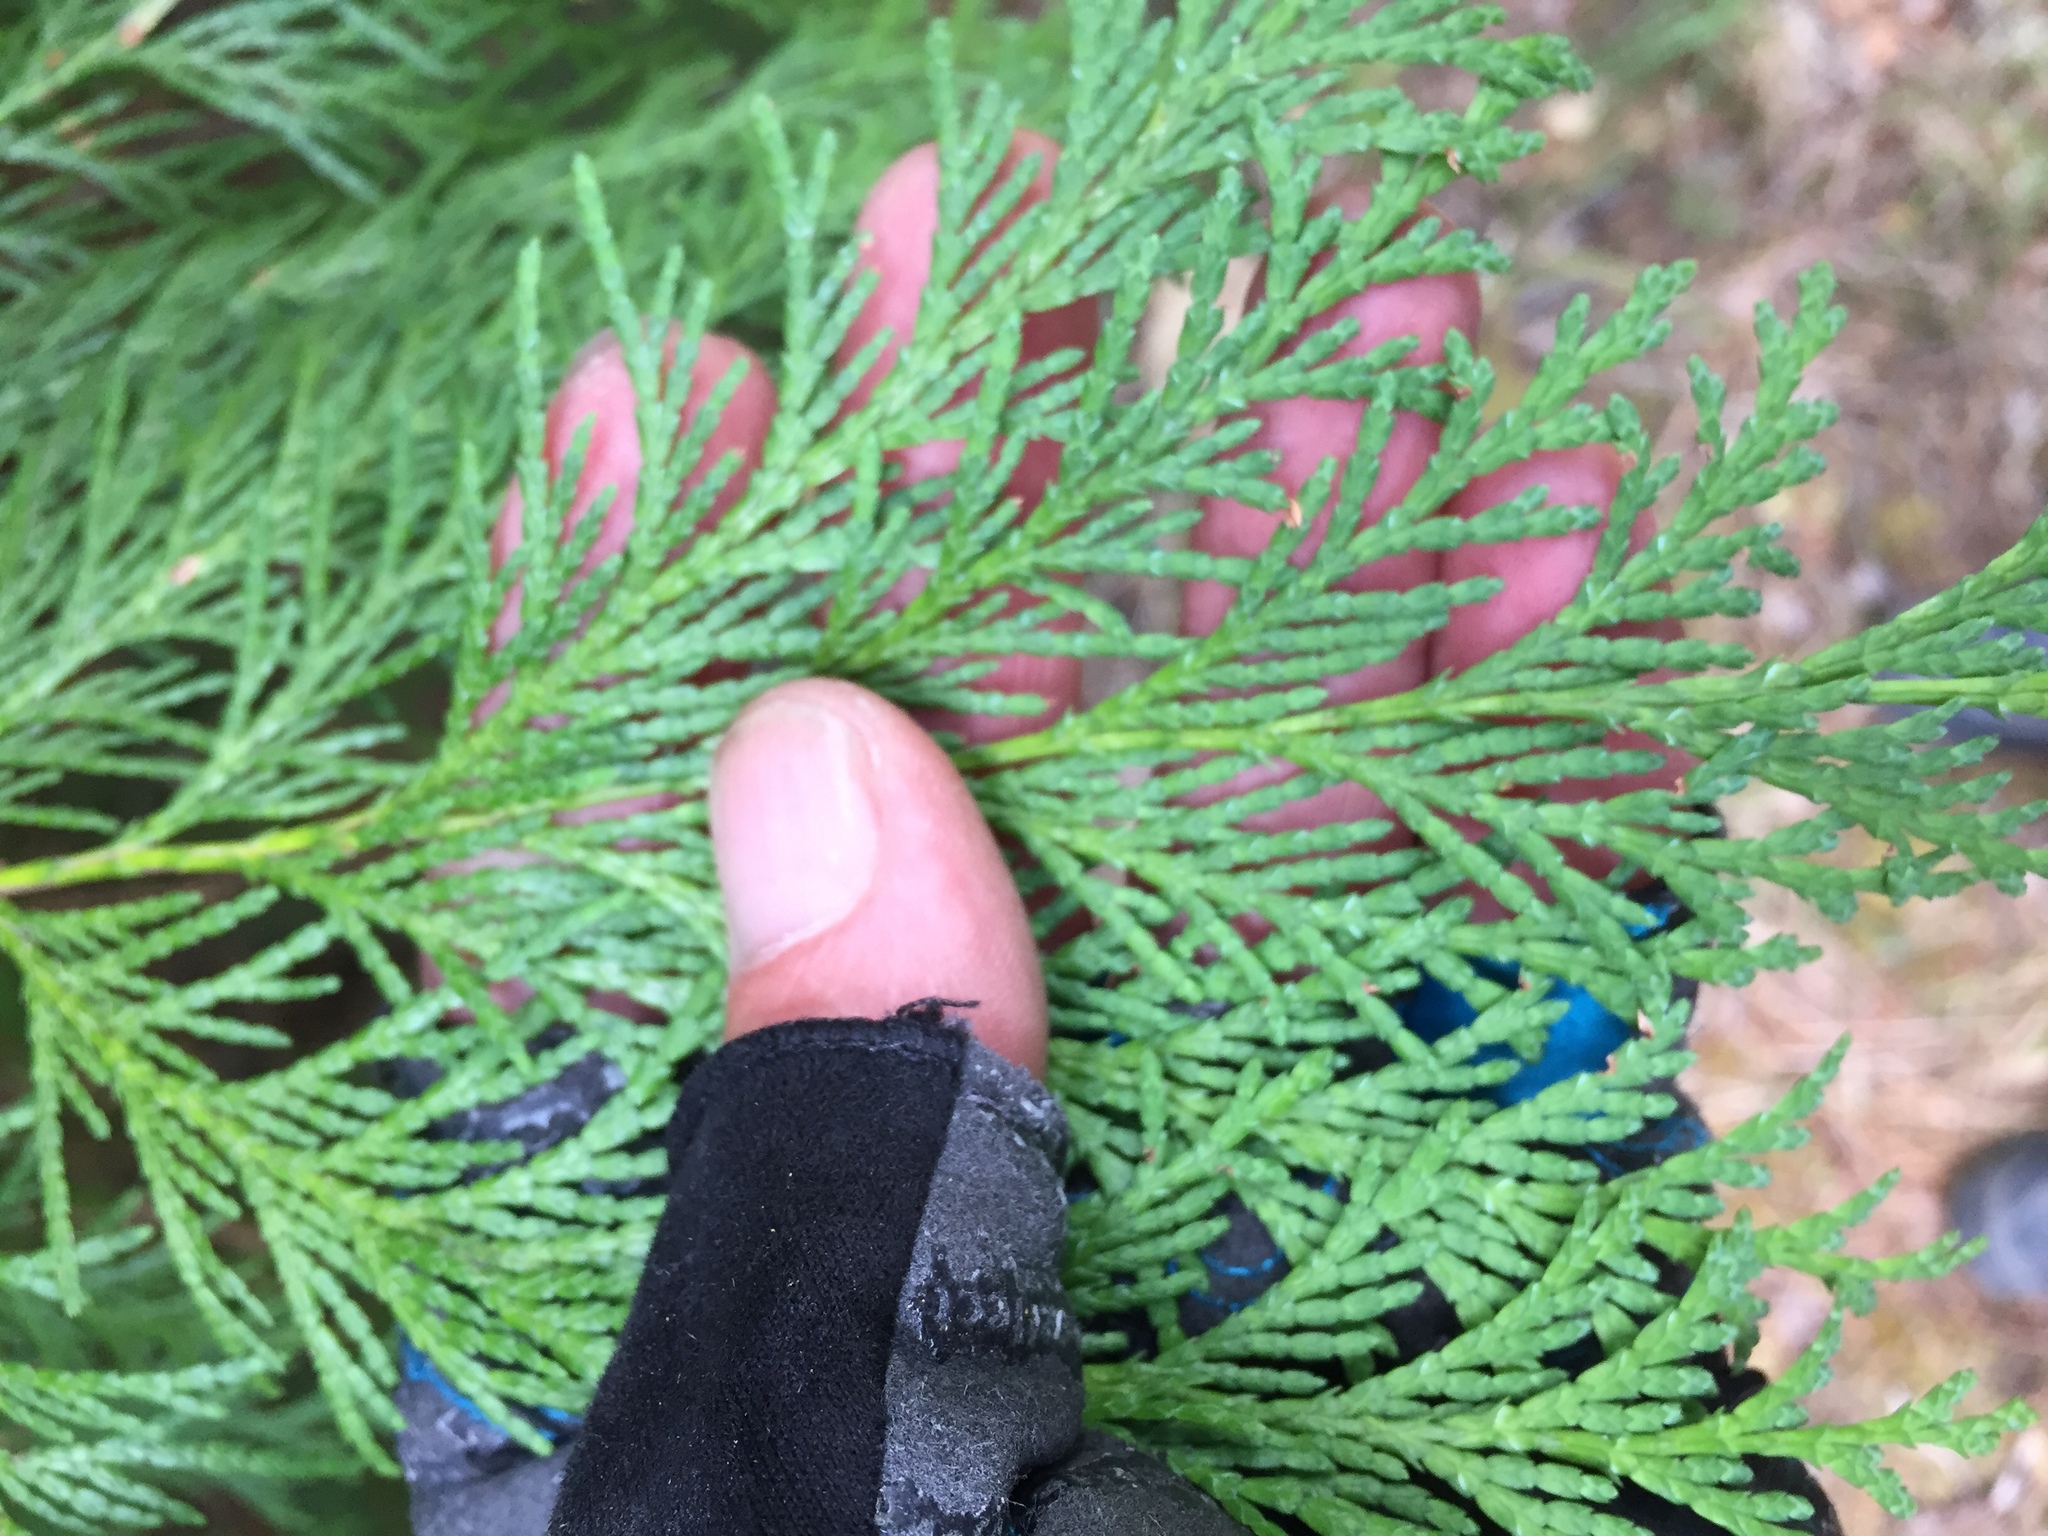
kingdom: Plantae
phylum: Tracheophyta
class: Pinopsida
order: Pinales
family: Cupressaceae
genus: Chamaecyparis
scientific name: Chamaecyparis lawsoniana
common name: Lawson's cypress
